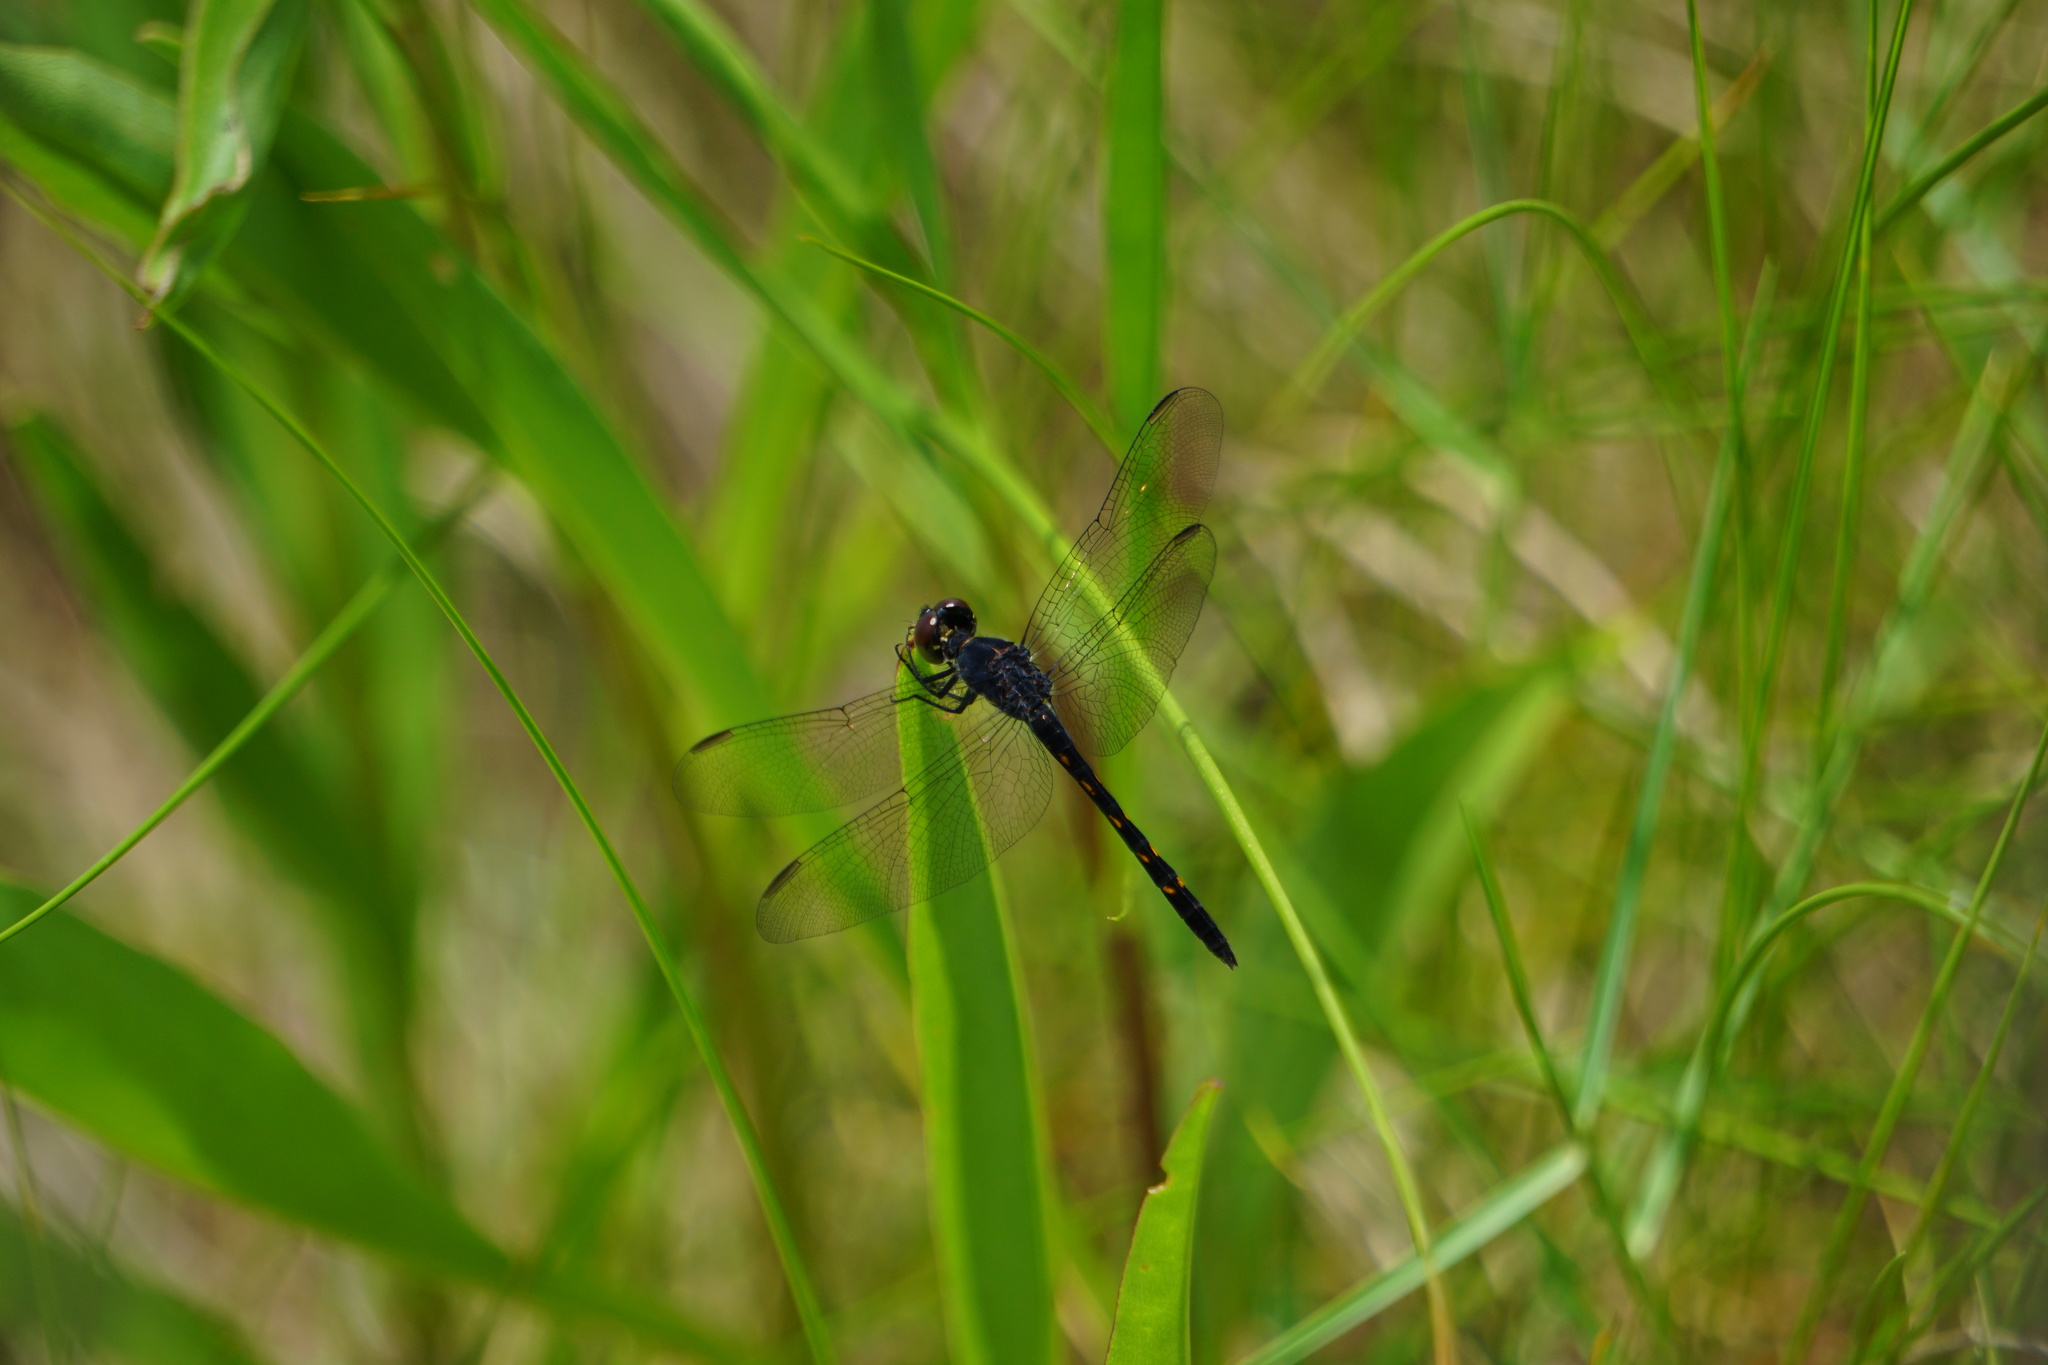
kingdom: Animalia
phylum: Arthropoda
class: Insecta
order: Odonata
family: Libellulidae
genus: Erythrodiplax
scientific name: Erythrodiplax berenice
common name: Seaside dragonlet
